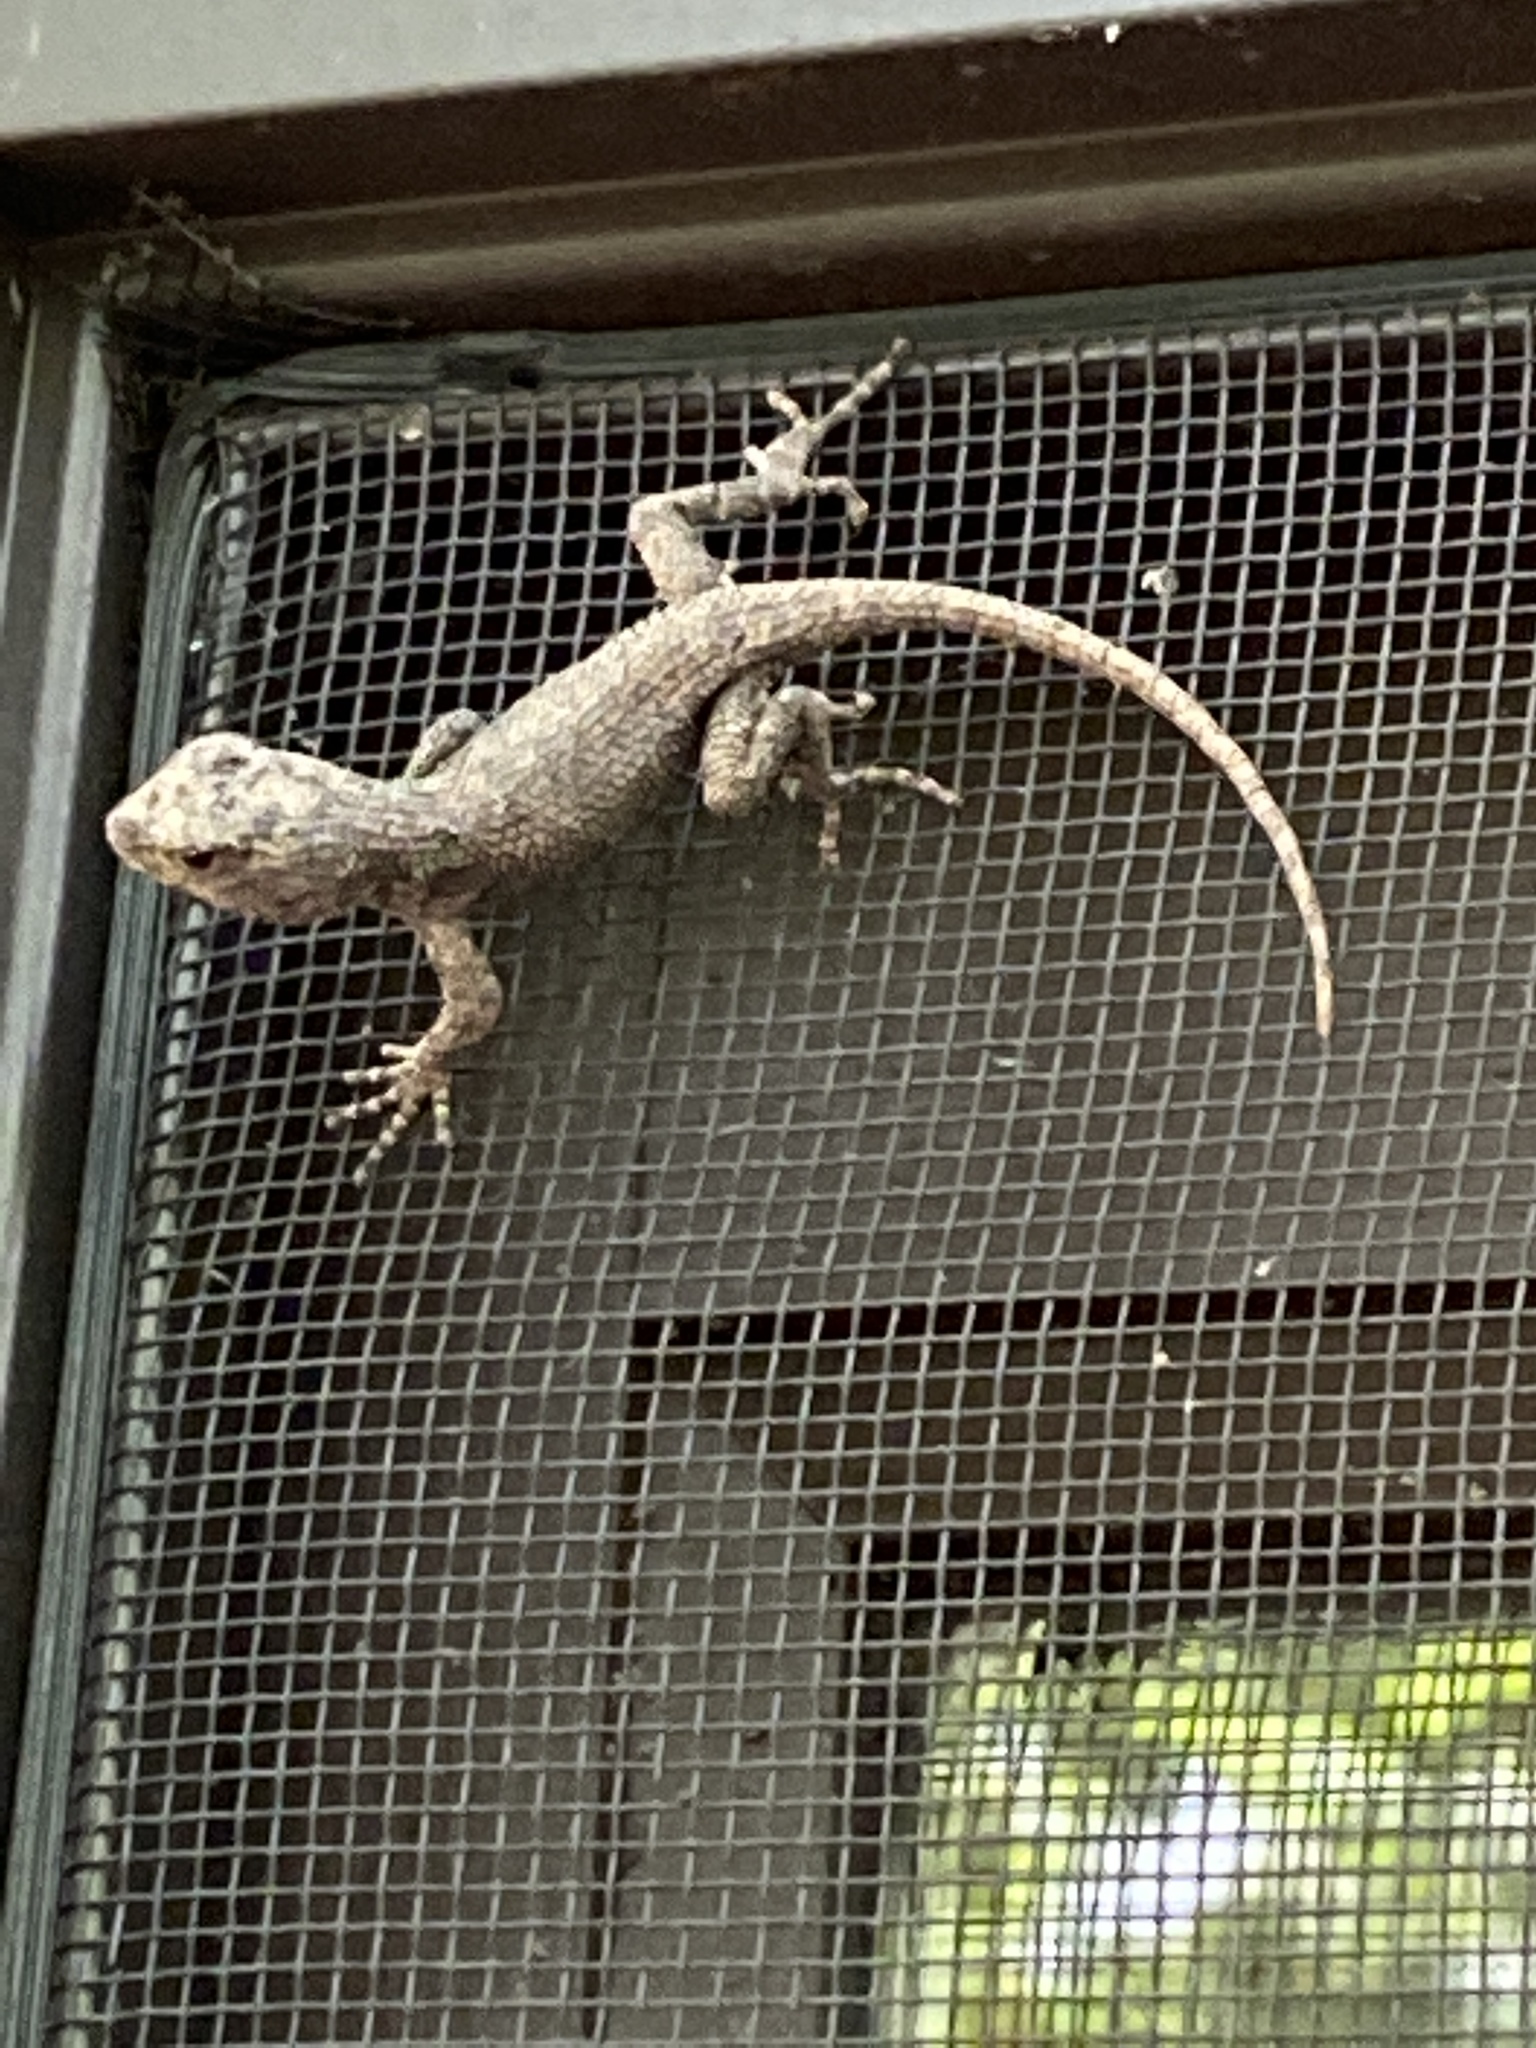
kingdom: Animalia
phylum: Chordata
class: Squamata
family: Phrynosomatidae
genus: Sceloporus
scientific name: Sceloporus undulatus
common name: Eastern fence lizard
